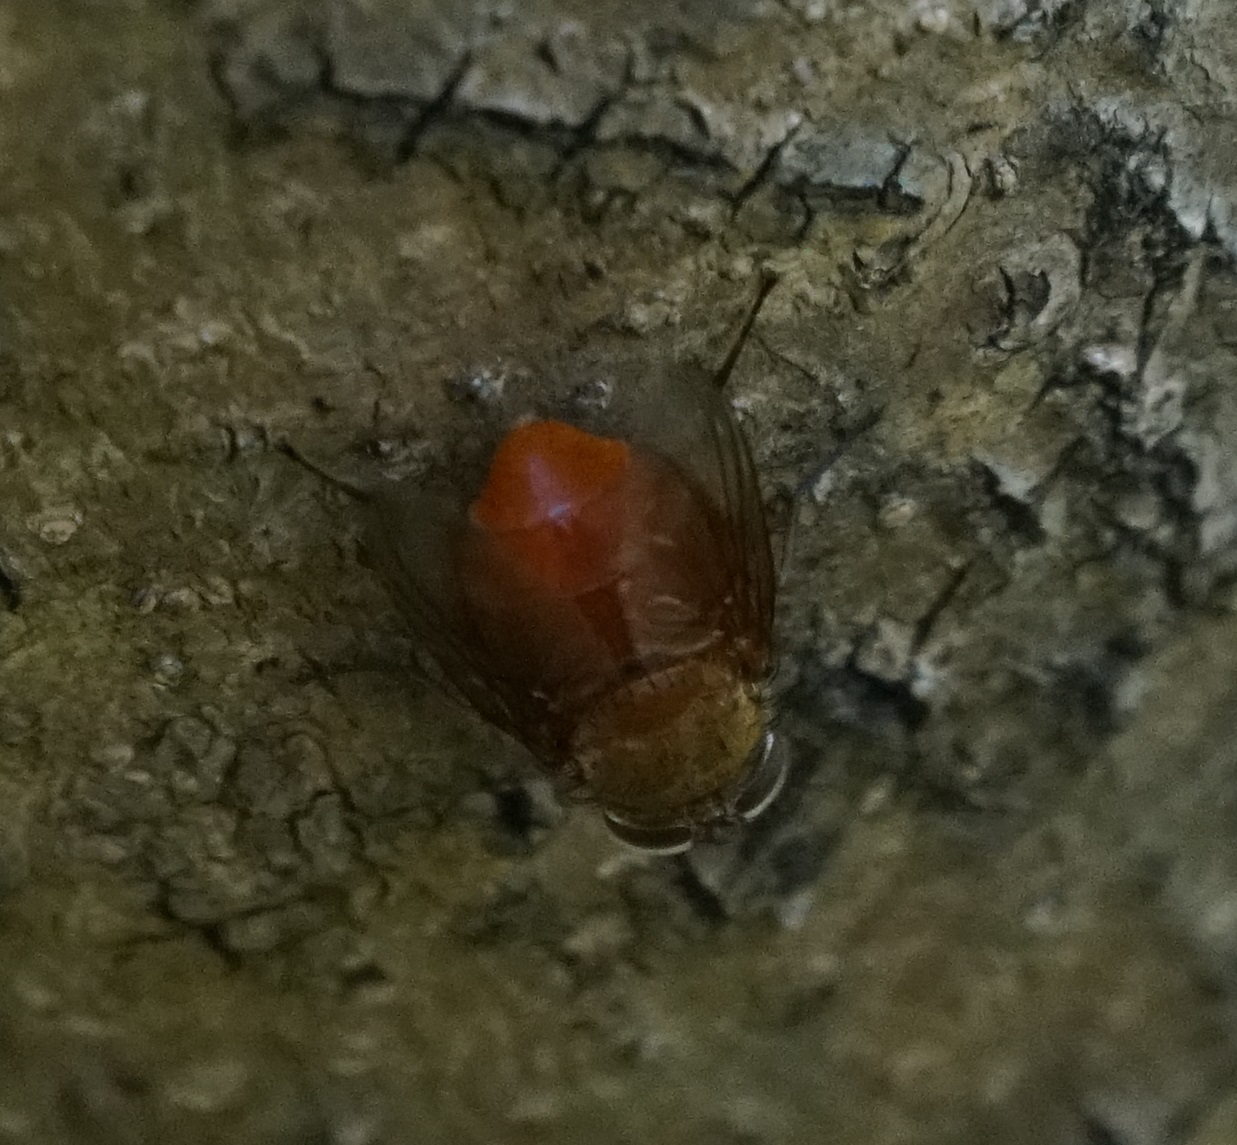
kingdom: Animalia
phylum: Arthropoda
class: Insecta
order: Diptera
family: Calliphoridae
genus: Calliphora
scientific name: Calliphora ochracea
